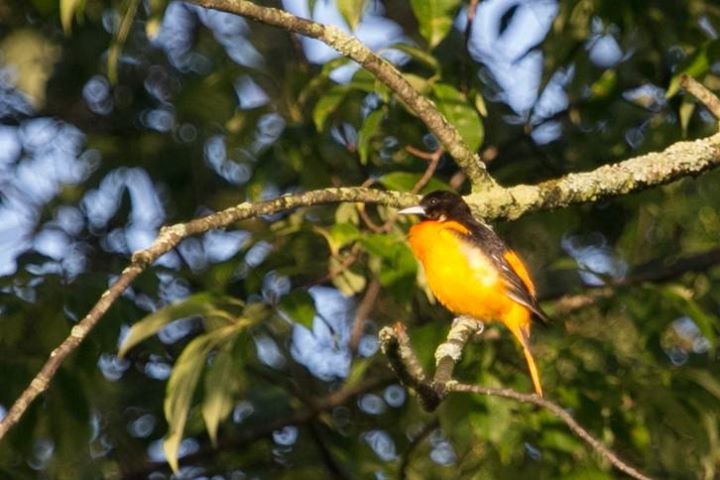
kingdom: Animalia
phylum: Chordata
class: Aves
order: Passeriformes
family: Icteridae
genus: Icterus
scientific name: Icterus galbula
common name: Baltimore oriole
